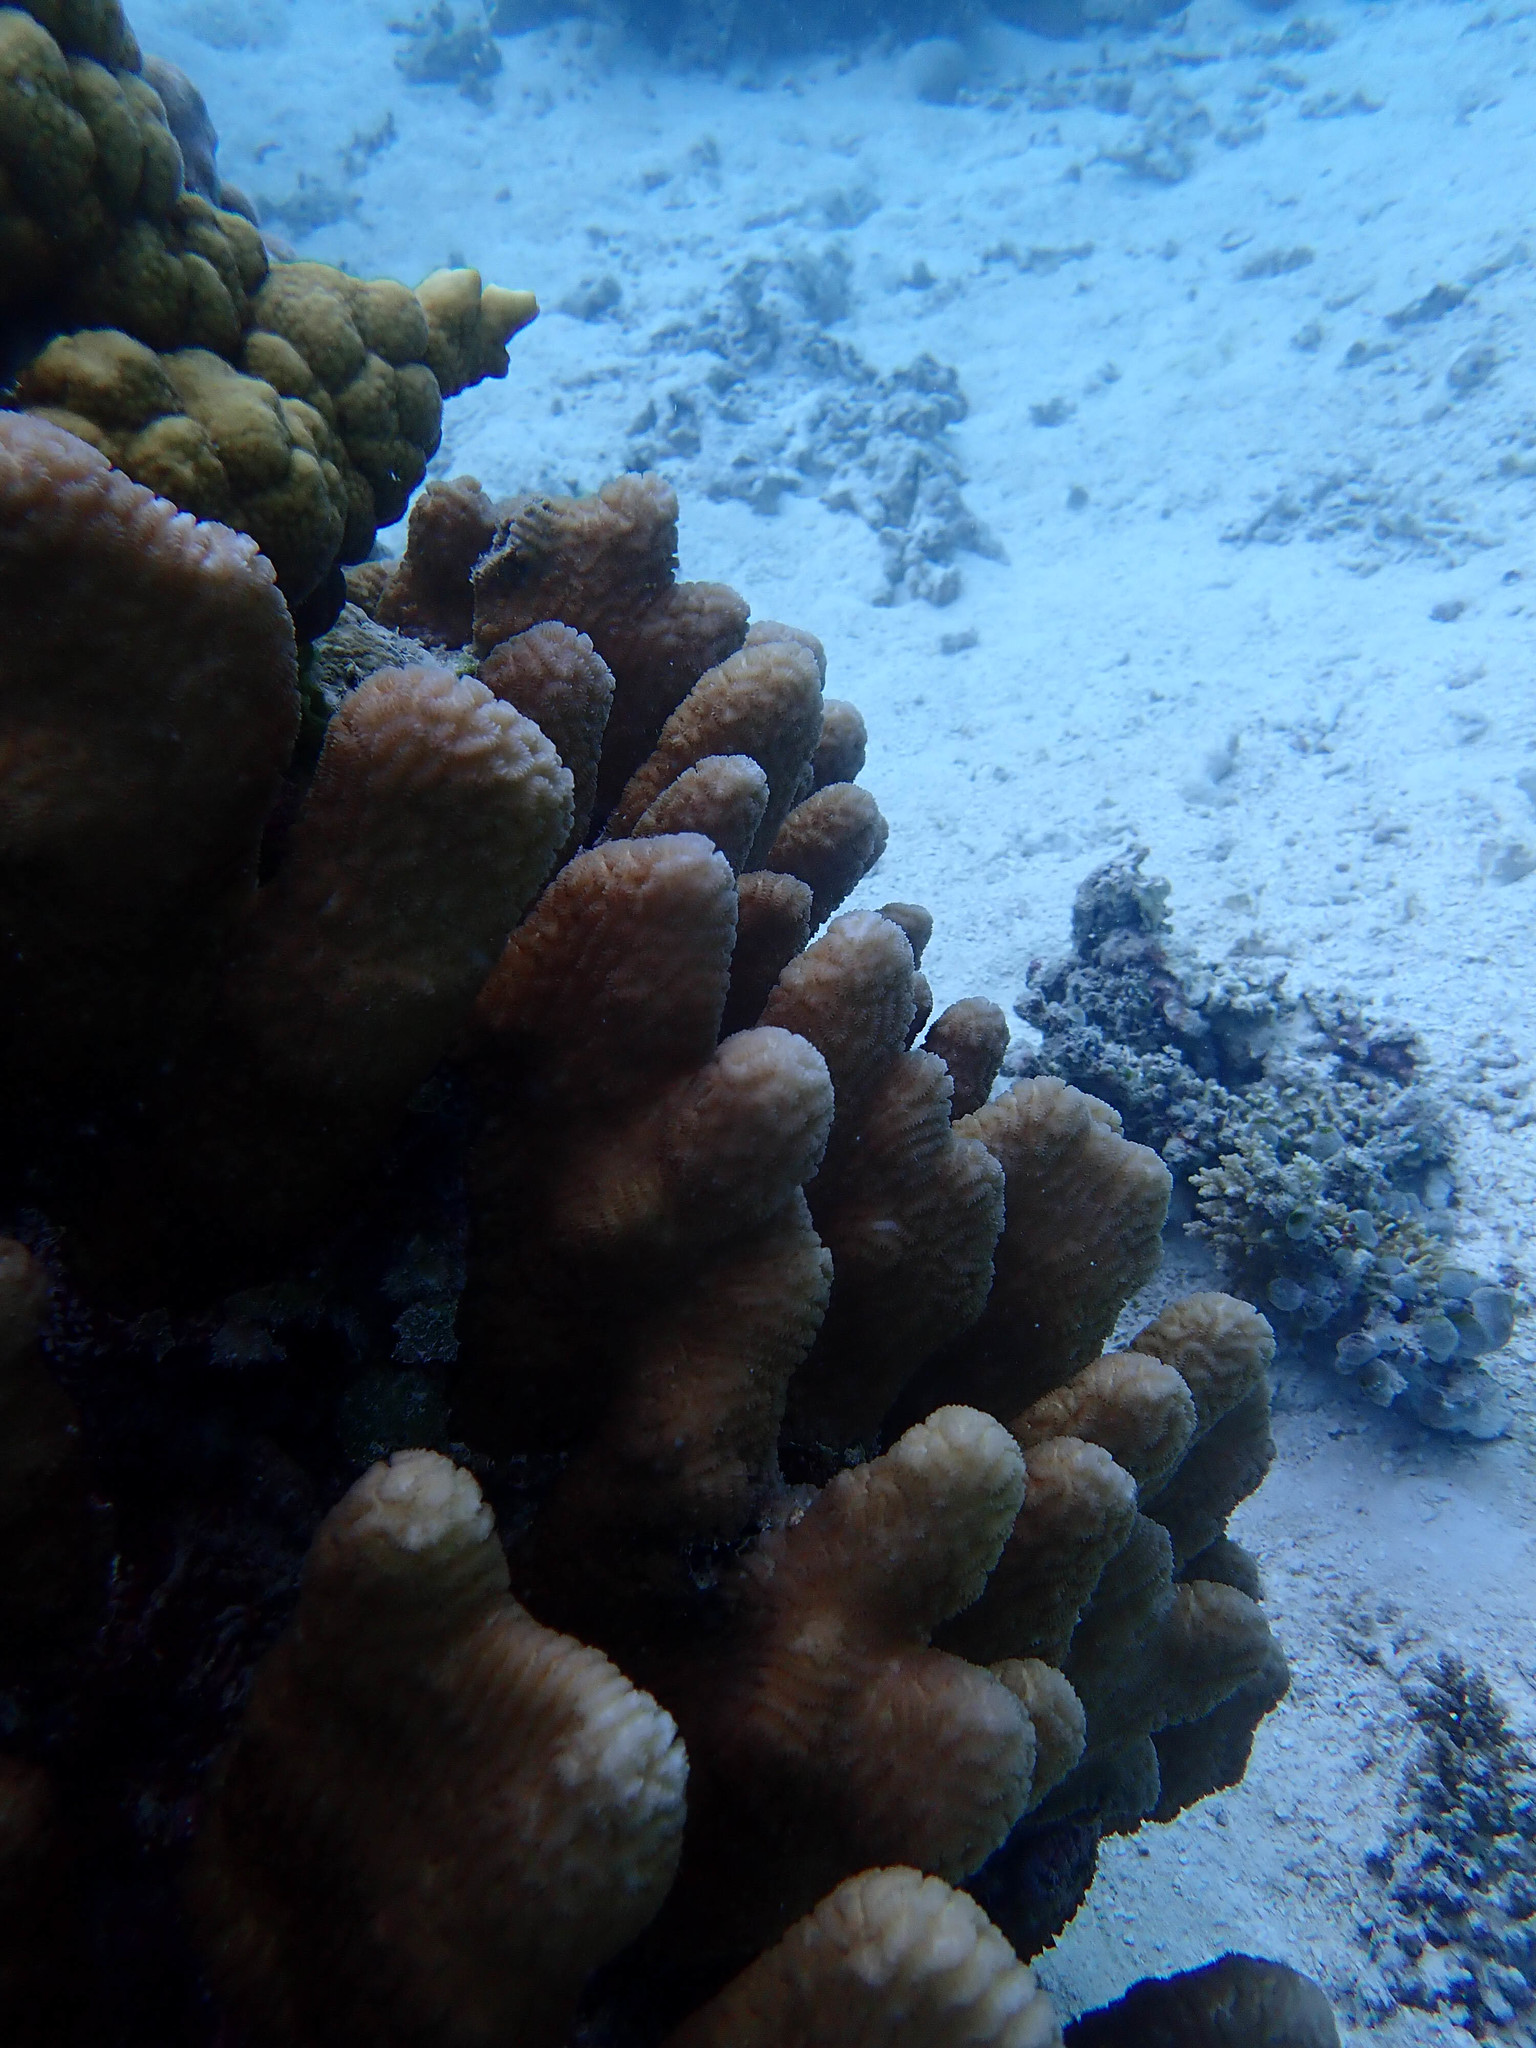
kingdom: Animalia
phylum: Cnidaria
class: Anthozoa
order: Scleractinia
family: Merulinidae
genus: Merulina
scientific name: Merulina cylindrica
